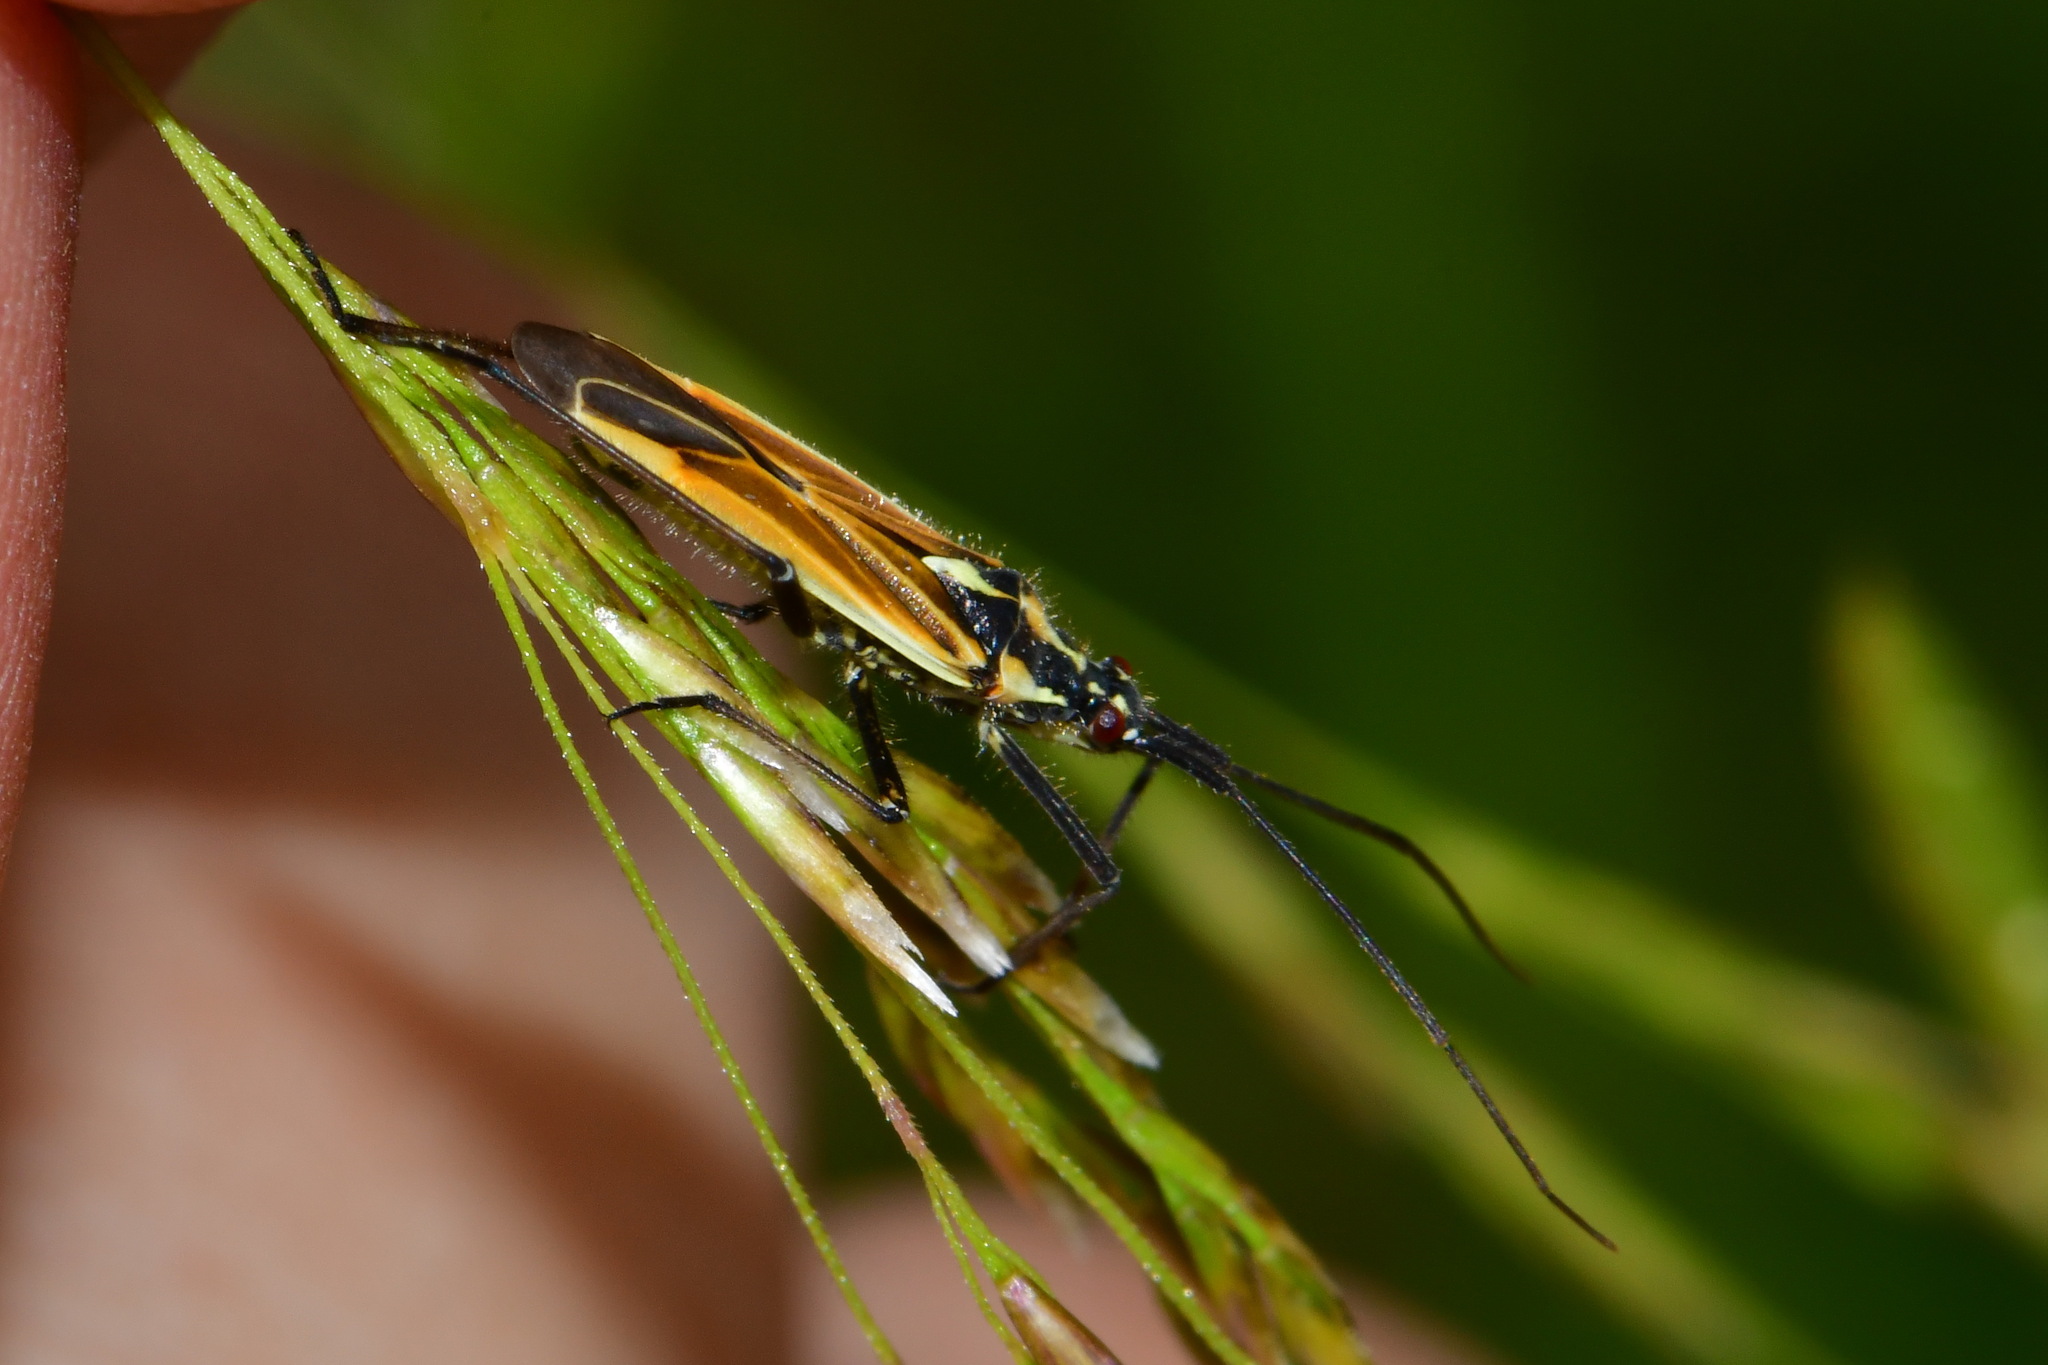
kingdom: Animalia
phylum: Arthropoda
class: Insecta
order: Hemiptera
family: Miridae
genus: Leptopterna
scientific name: Leptopterna dolabrata
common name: Meadow plant bug
